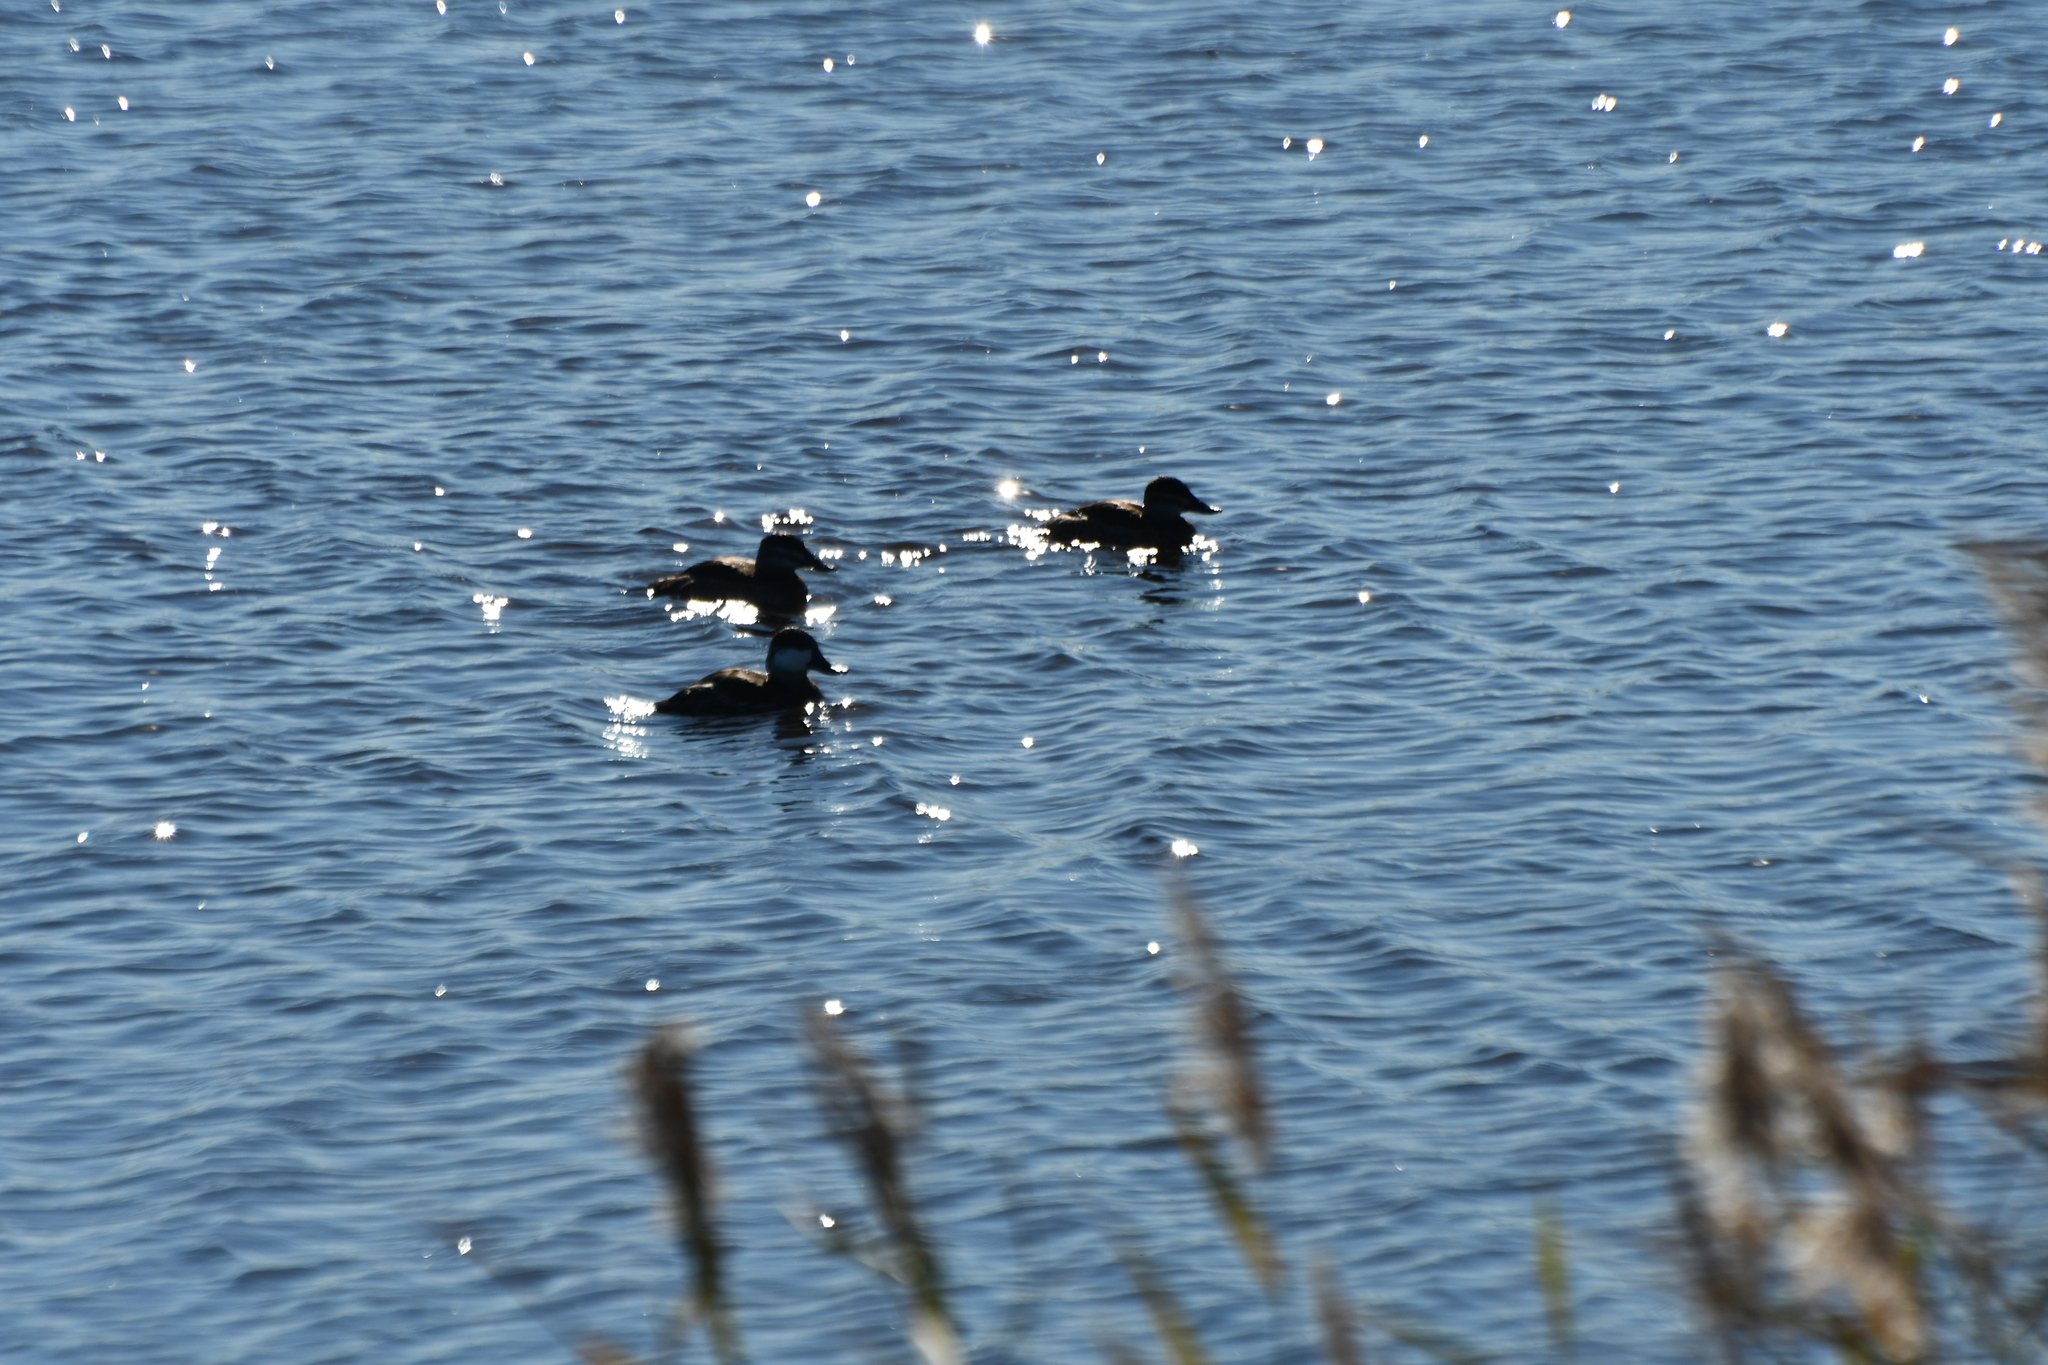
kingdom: Animalia
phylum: Chordata
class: Aves
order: Anseriformes
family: Anatidae
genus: Oxyura
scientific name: Oxyura jamaicensis
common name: Ruddy duck
